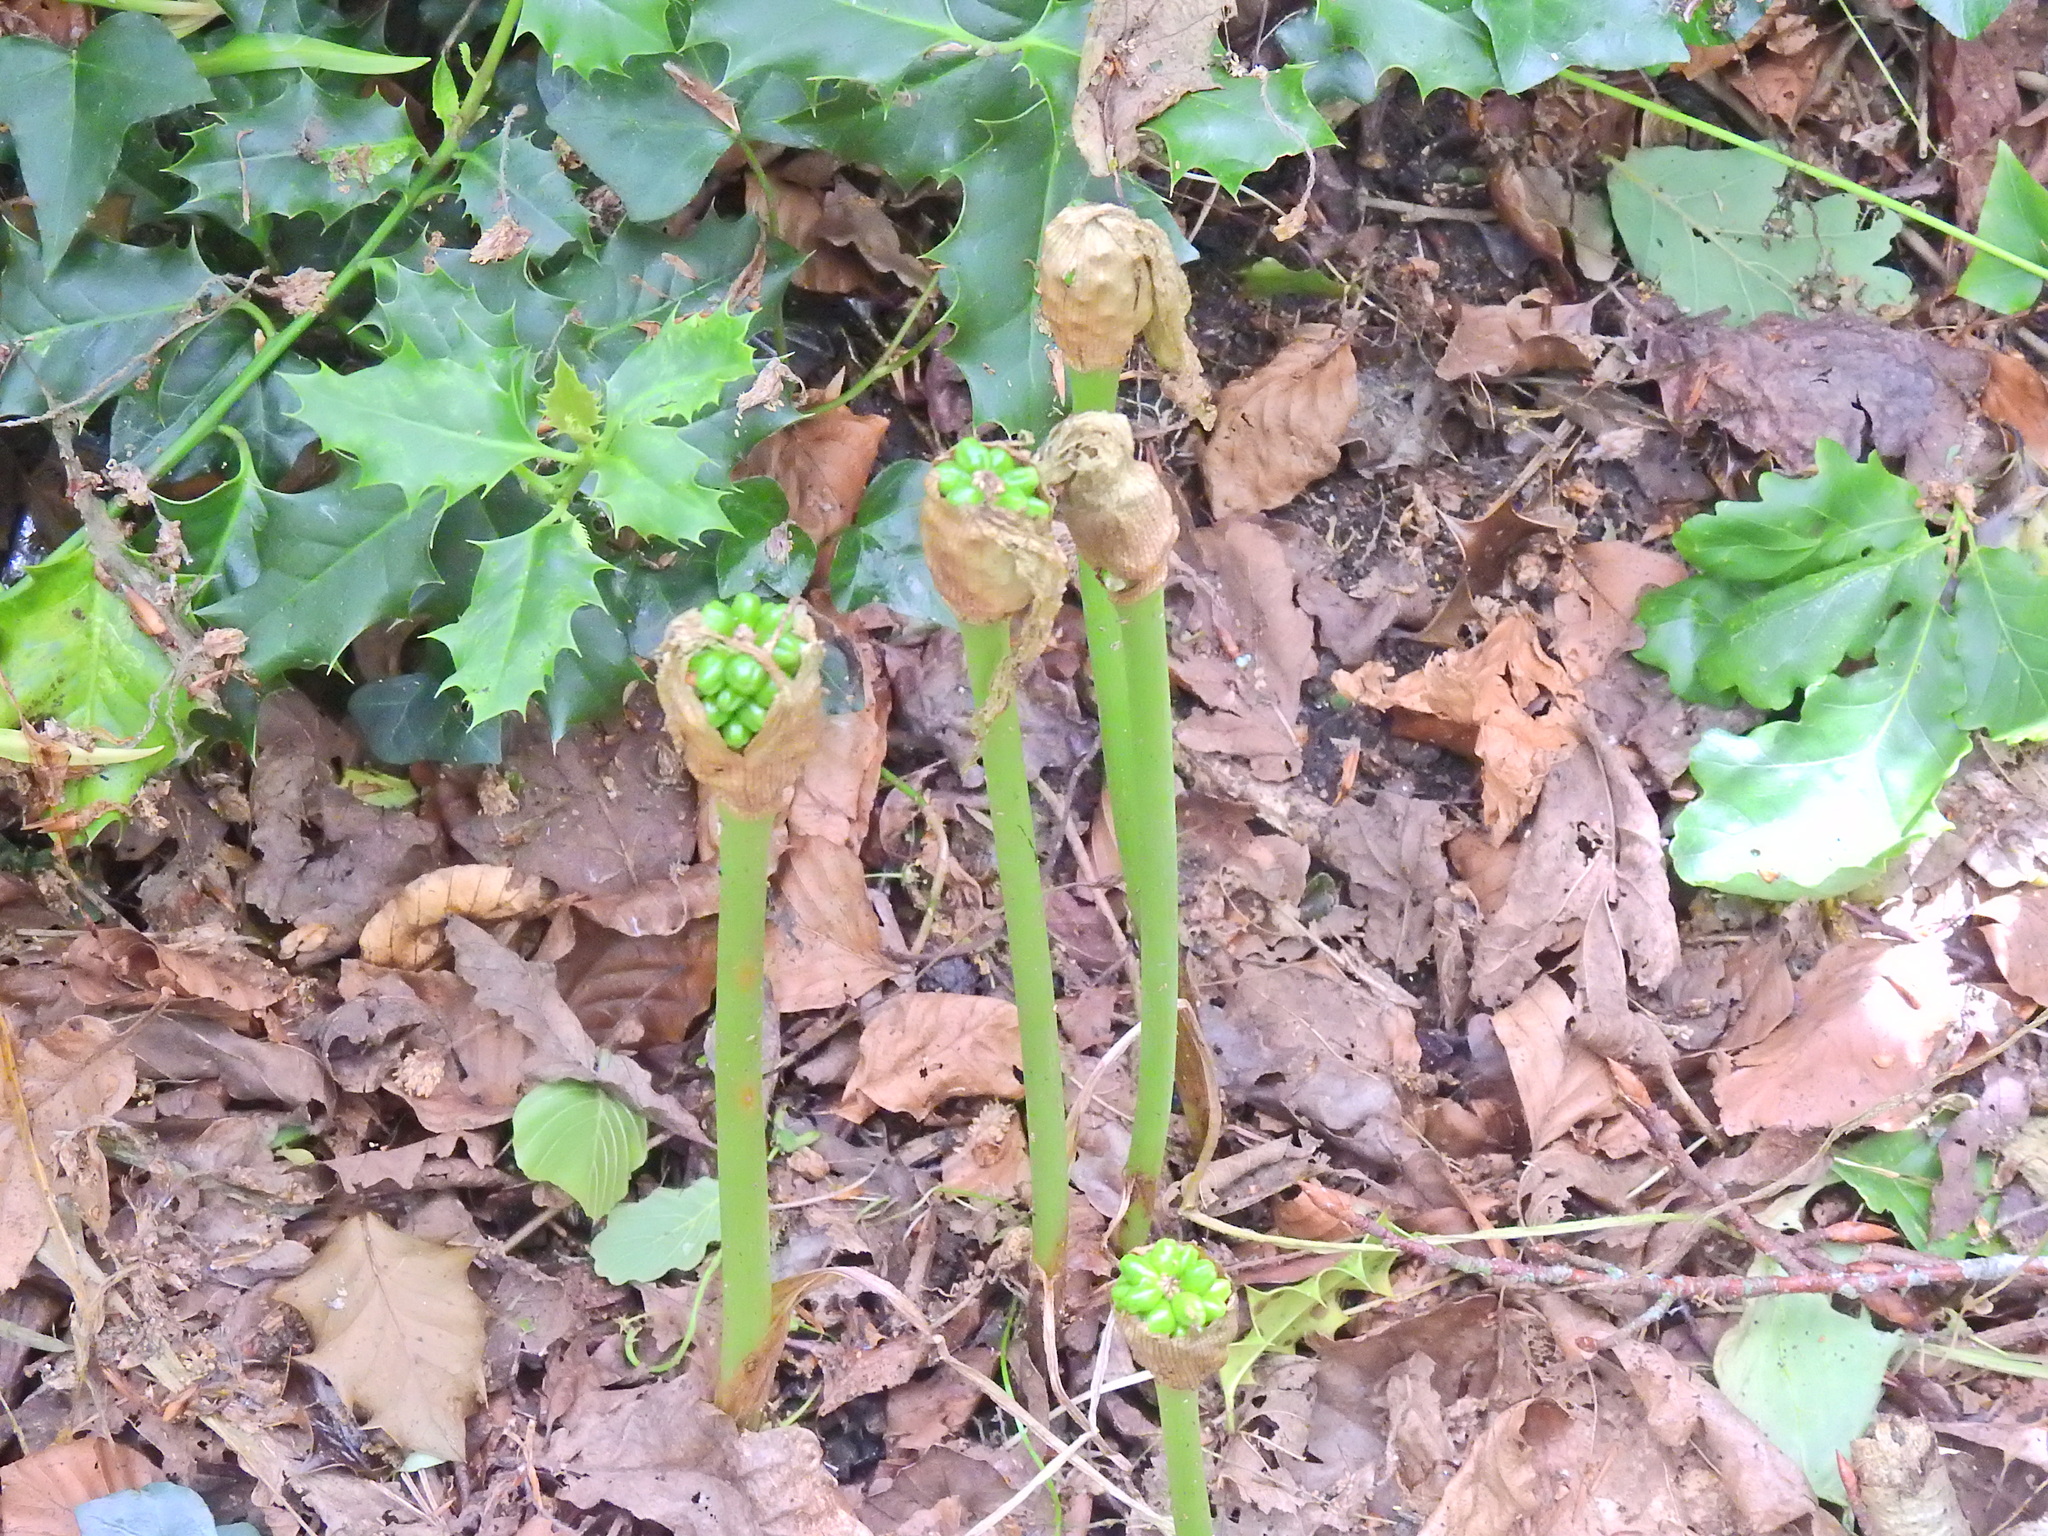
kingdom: Plantae
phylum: Tracheophyta
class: Liliopsida
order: Alismatales
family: Araceae
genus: Arum
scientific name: Arum maculatum
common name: Lords-and-ladies
